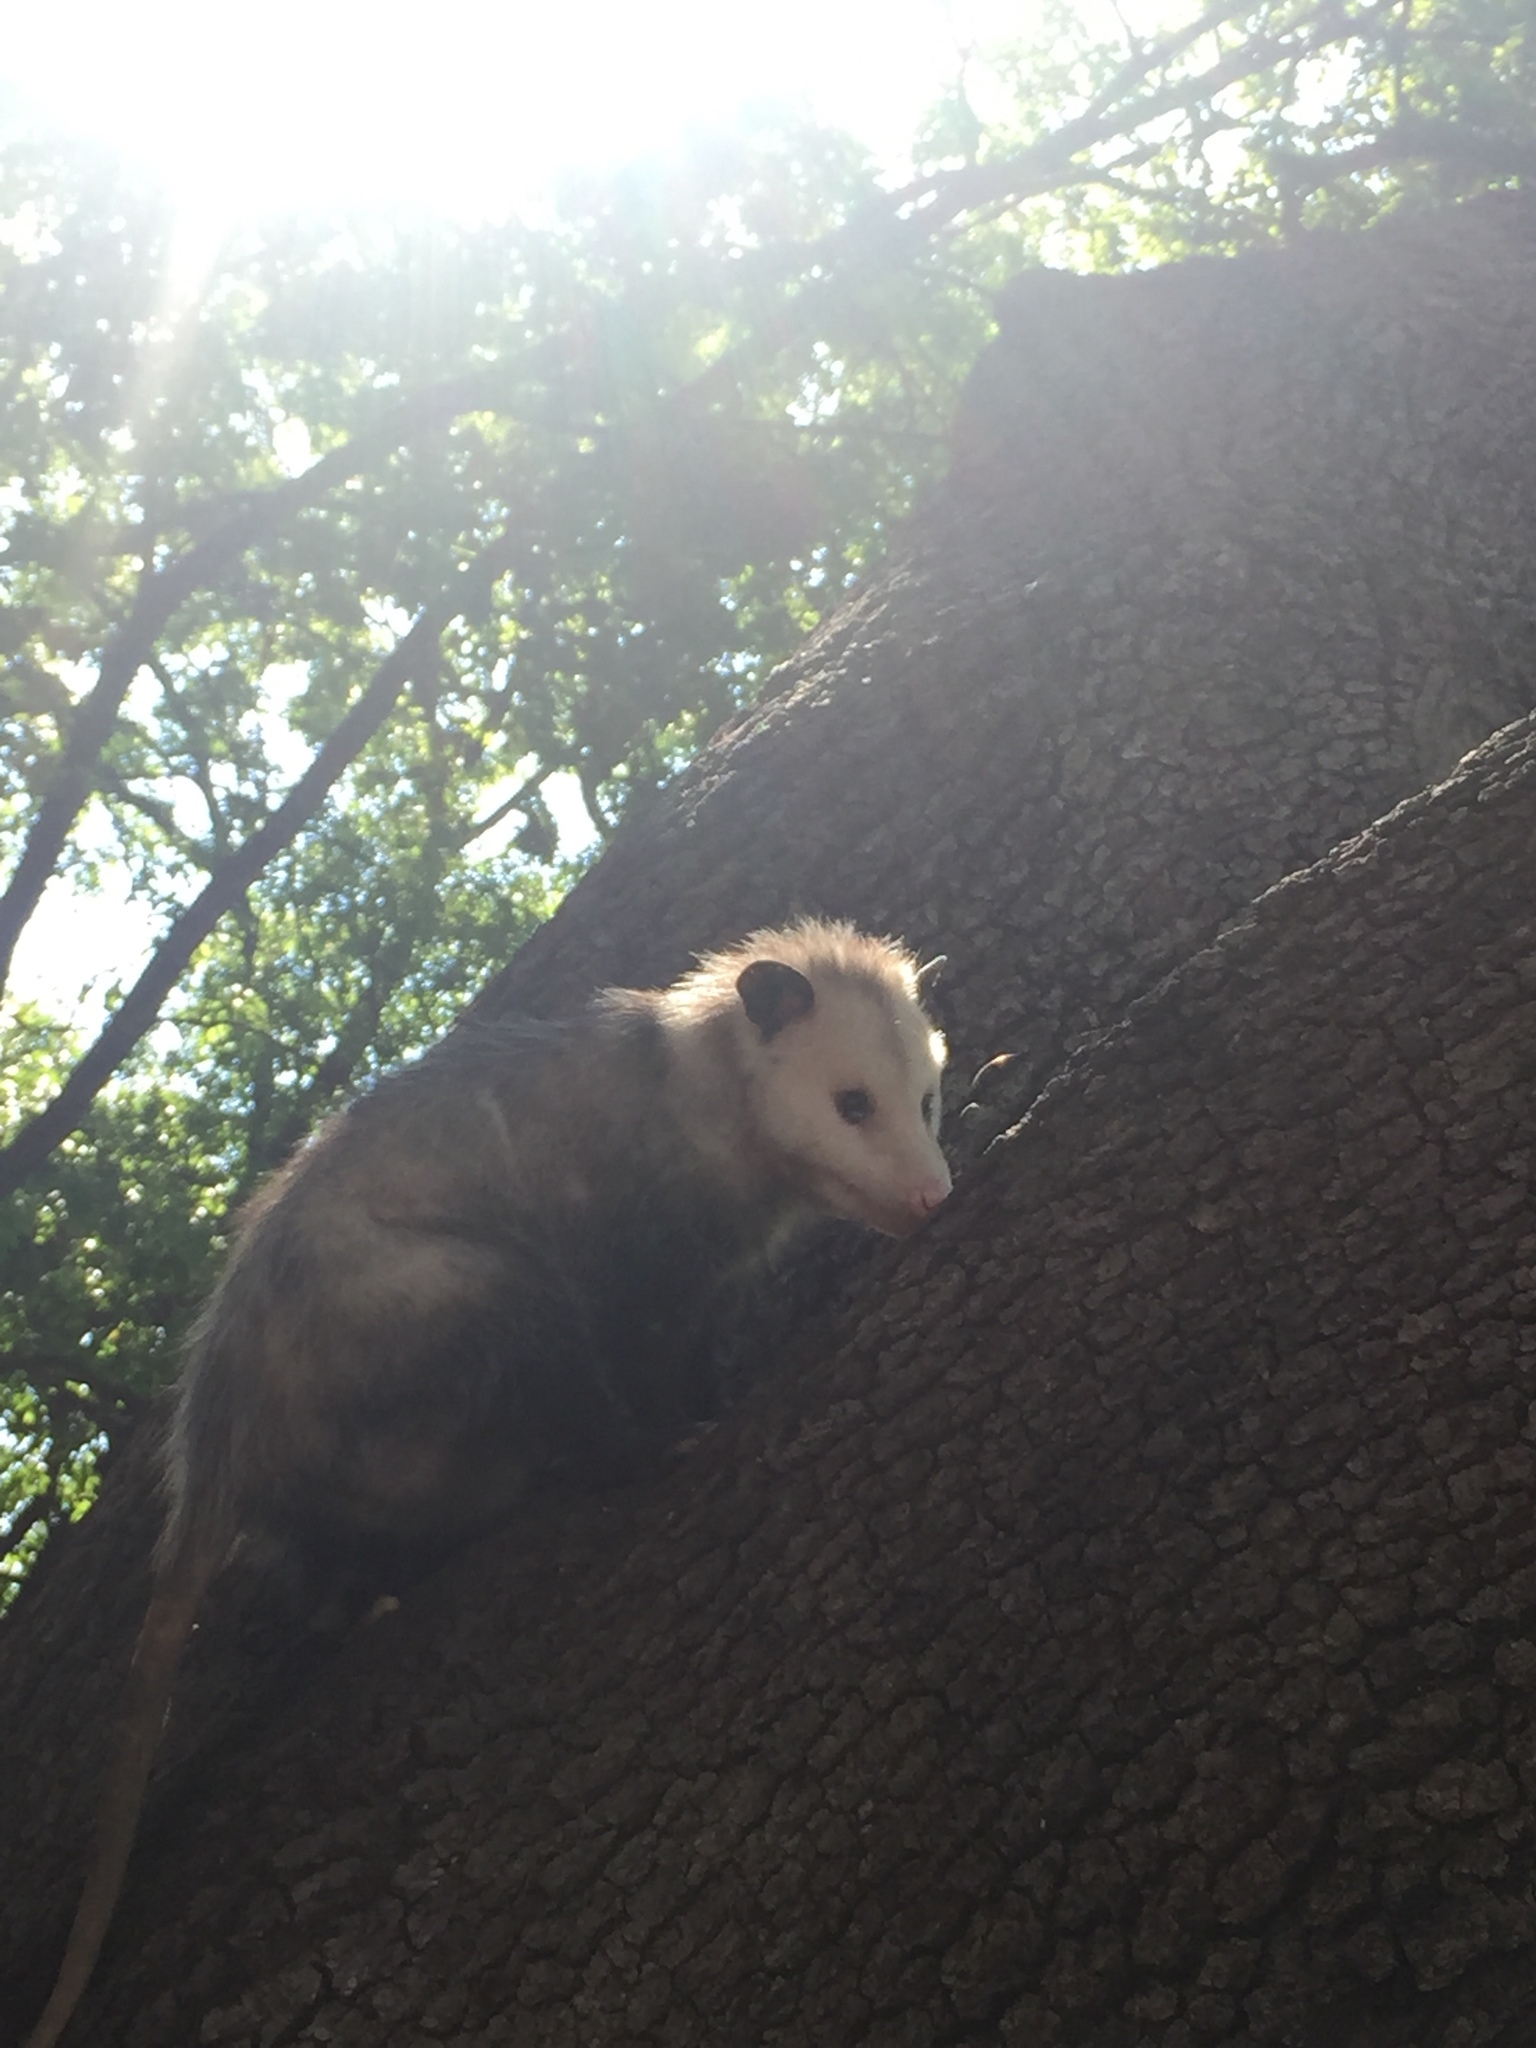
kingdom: Animalia
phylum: Chordata
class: Mammalia
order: Didelphimorphia
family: Didelphidae
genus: Didelphis
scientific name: Didelphis virginiana
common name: Virginia opossum
